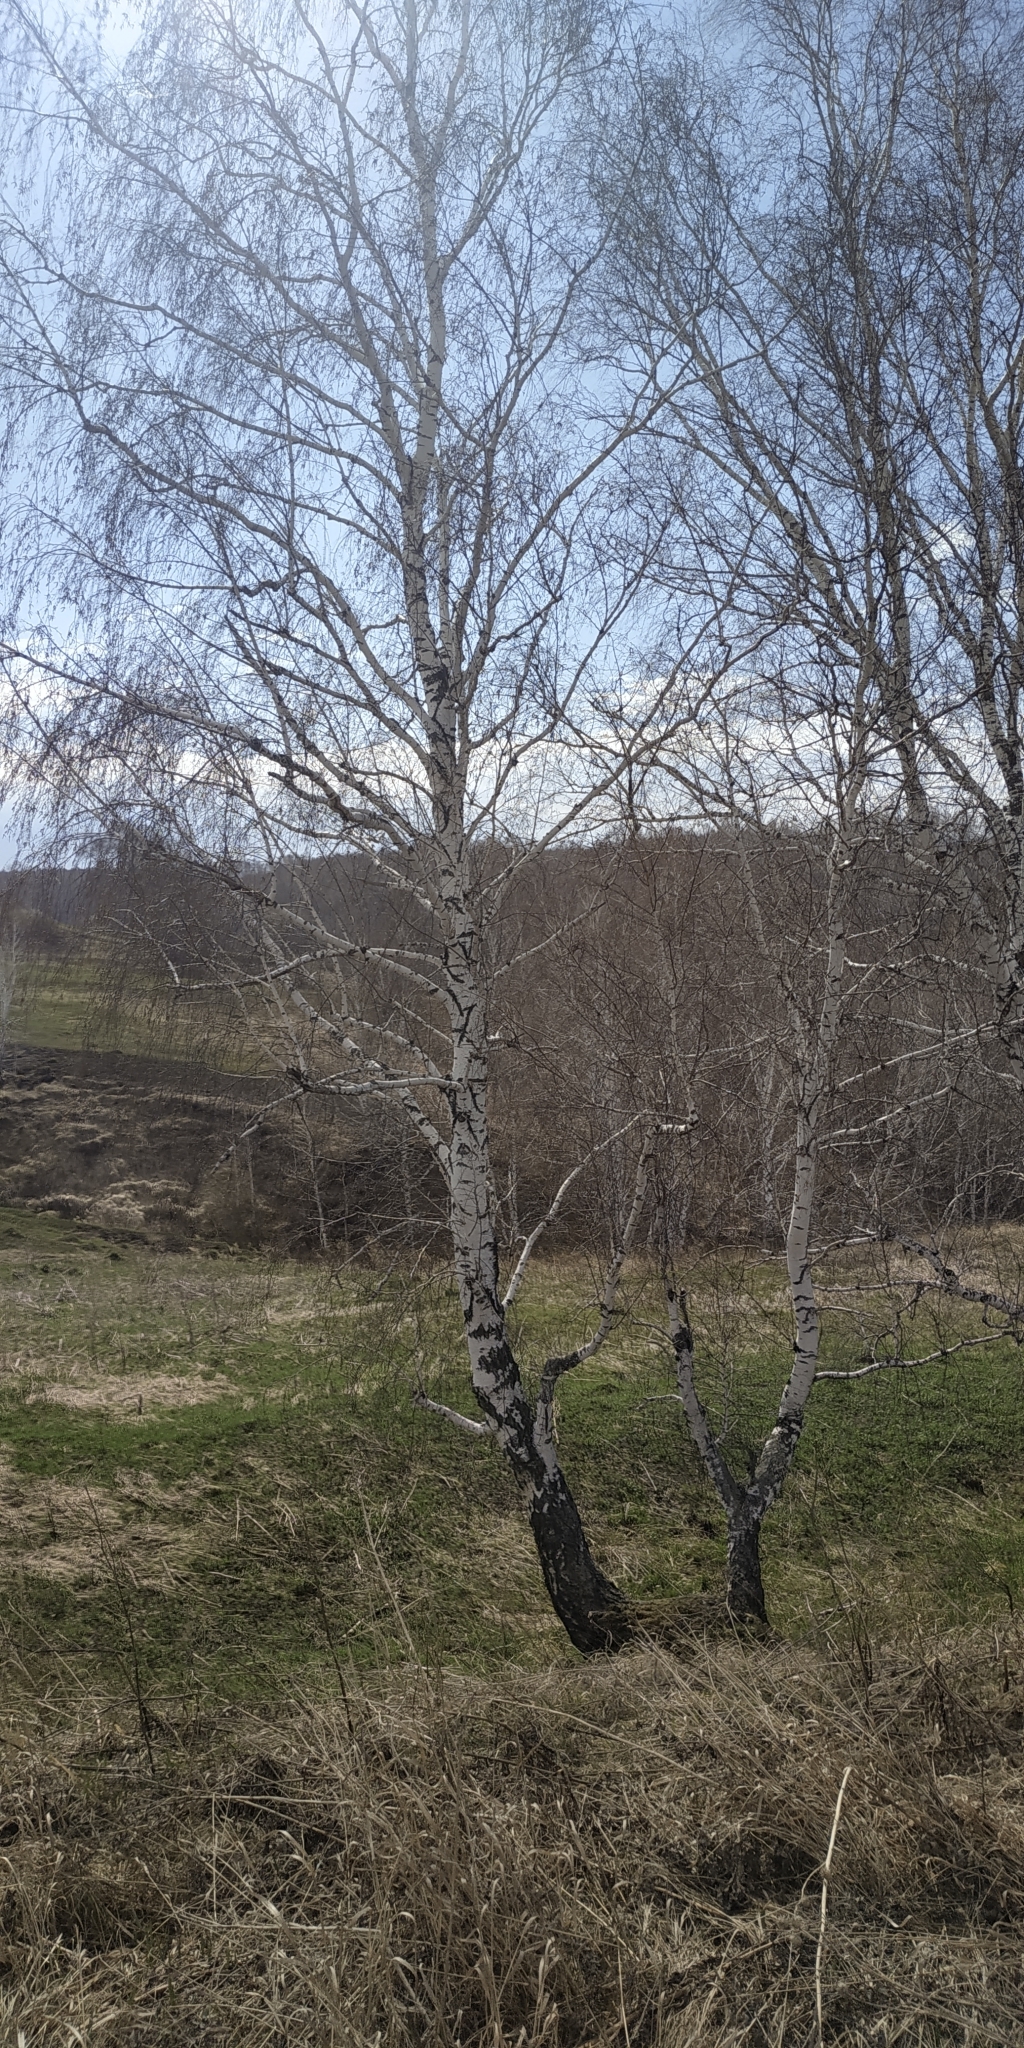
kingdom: Plantae
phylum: Tracheophyta
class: Magnoliopsida
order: Fagales
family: Betulaceae
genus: Betula
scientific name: Betula pendula
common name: Silver birch
